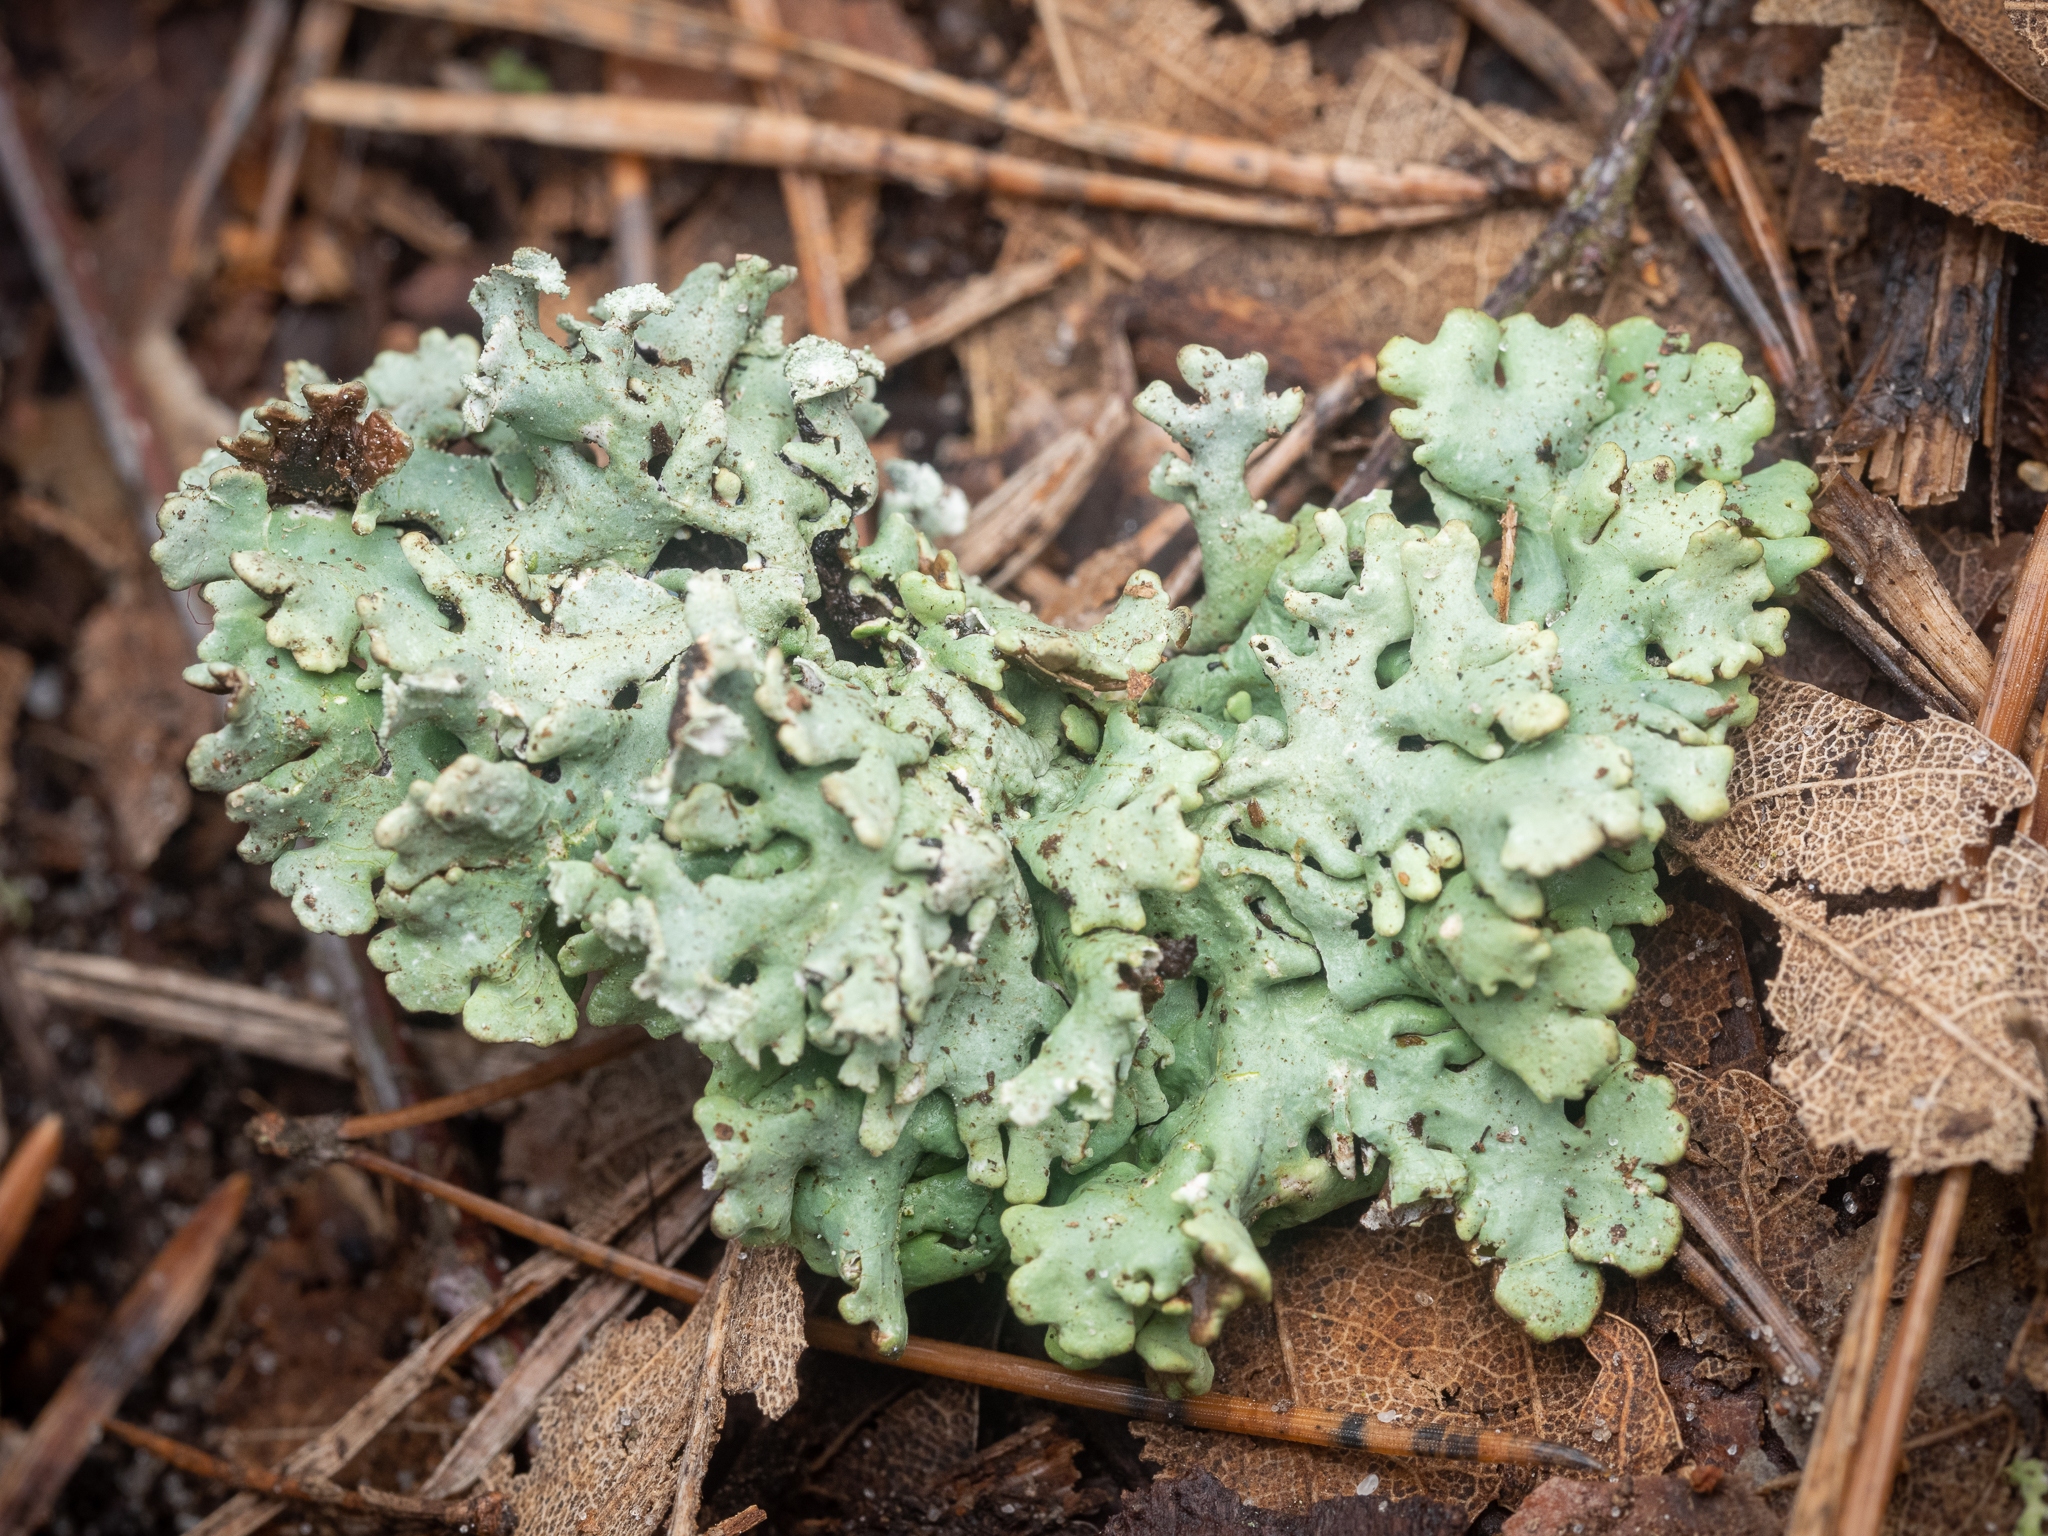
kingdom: Fungi
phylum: Ascomycota
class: Lecanoromycetes
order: Lecanorales
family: Parmeliaceae
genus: Hypogymnia
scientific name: Hypogymnia physodes
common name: Dark crottle
